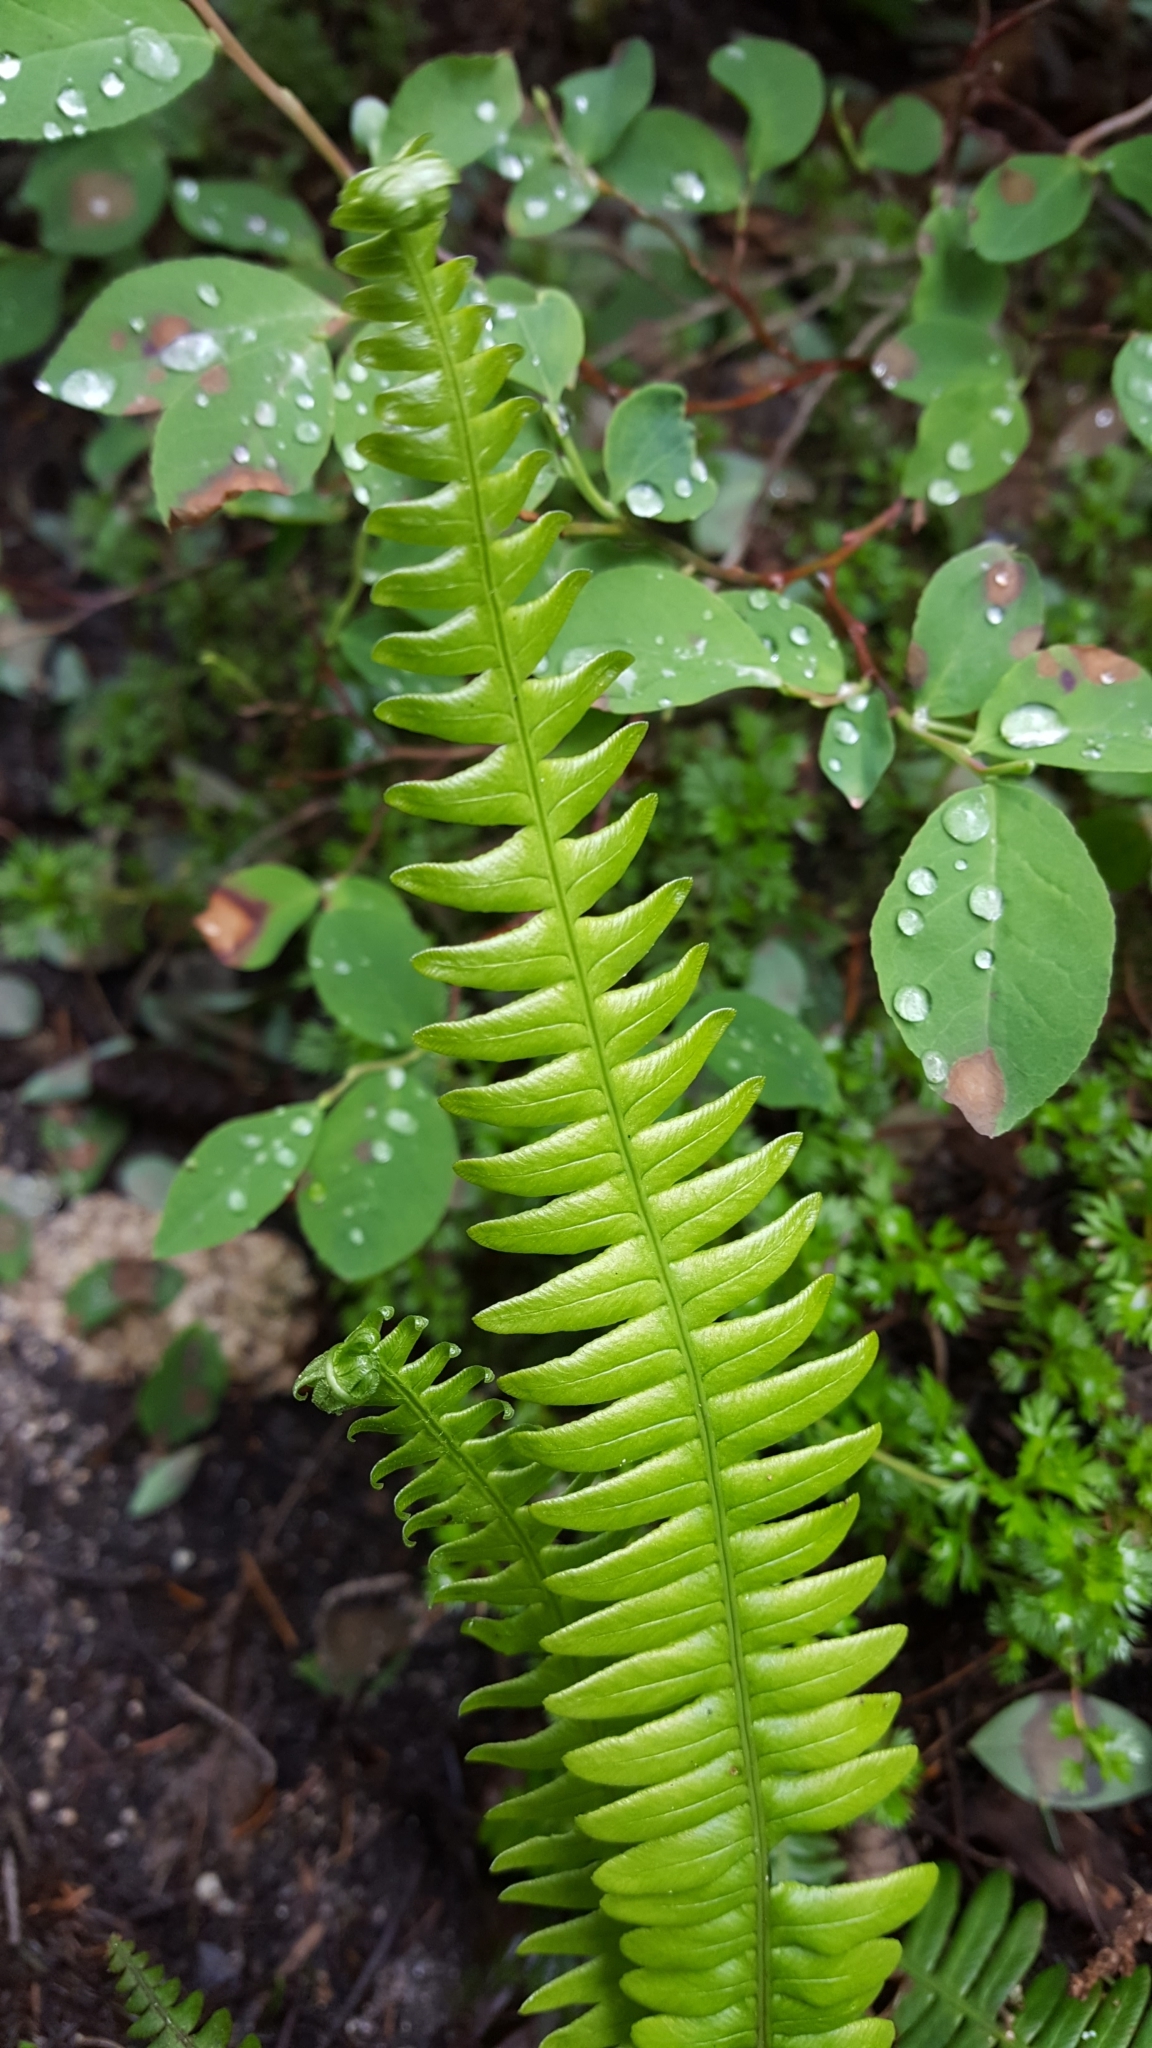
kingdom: Plantae
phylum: Tracheophyta
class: Polypodiopsida
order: Polypodiales
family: Blechnaceae
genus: Struthiopteris
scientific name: Struthiopteris spicant
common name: Deer fern
